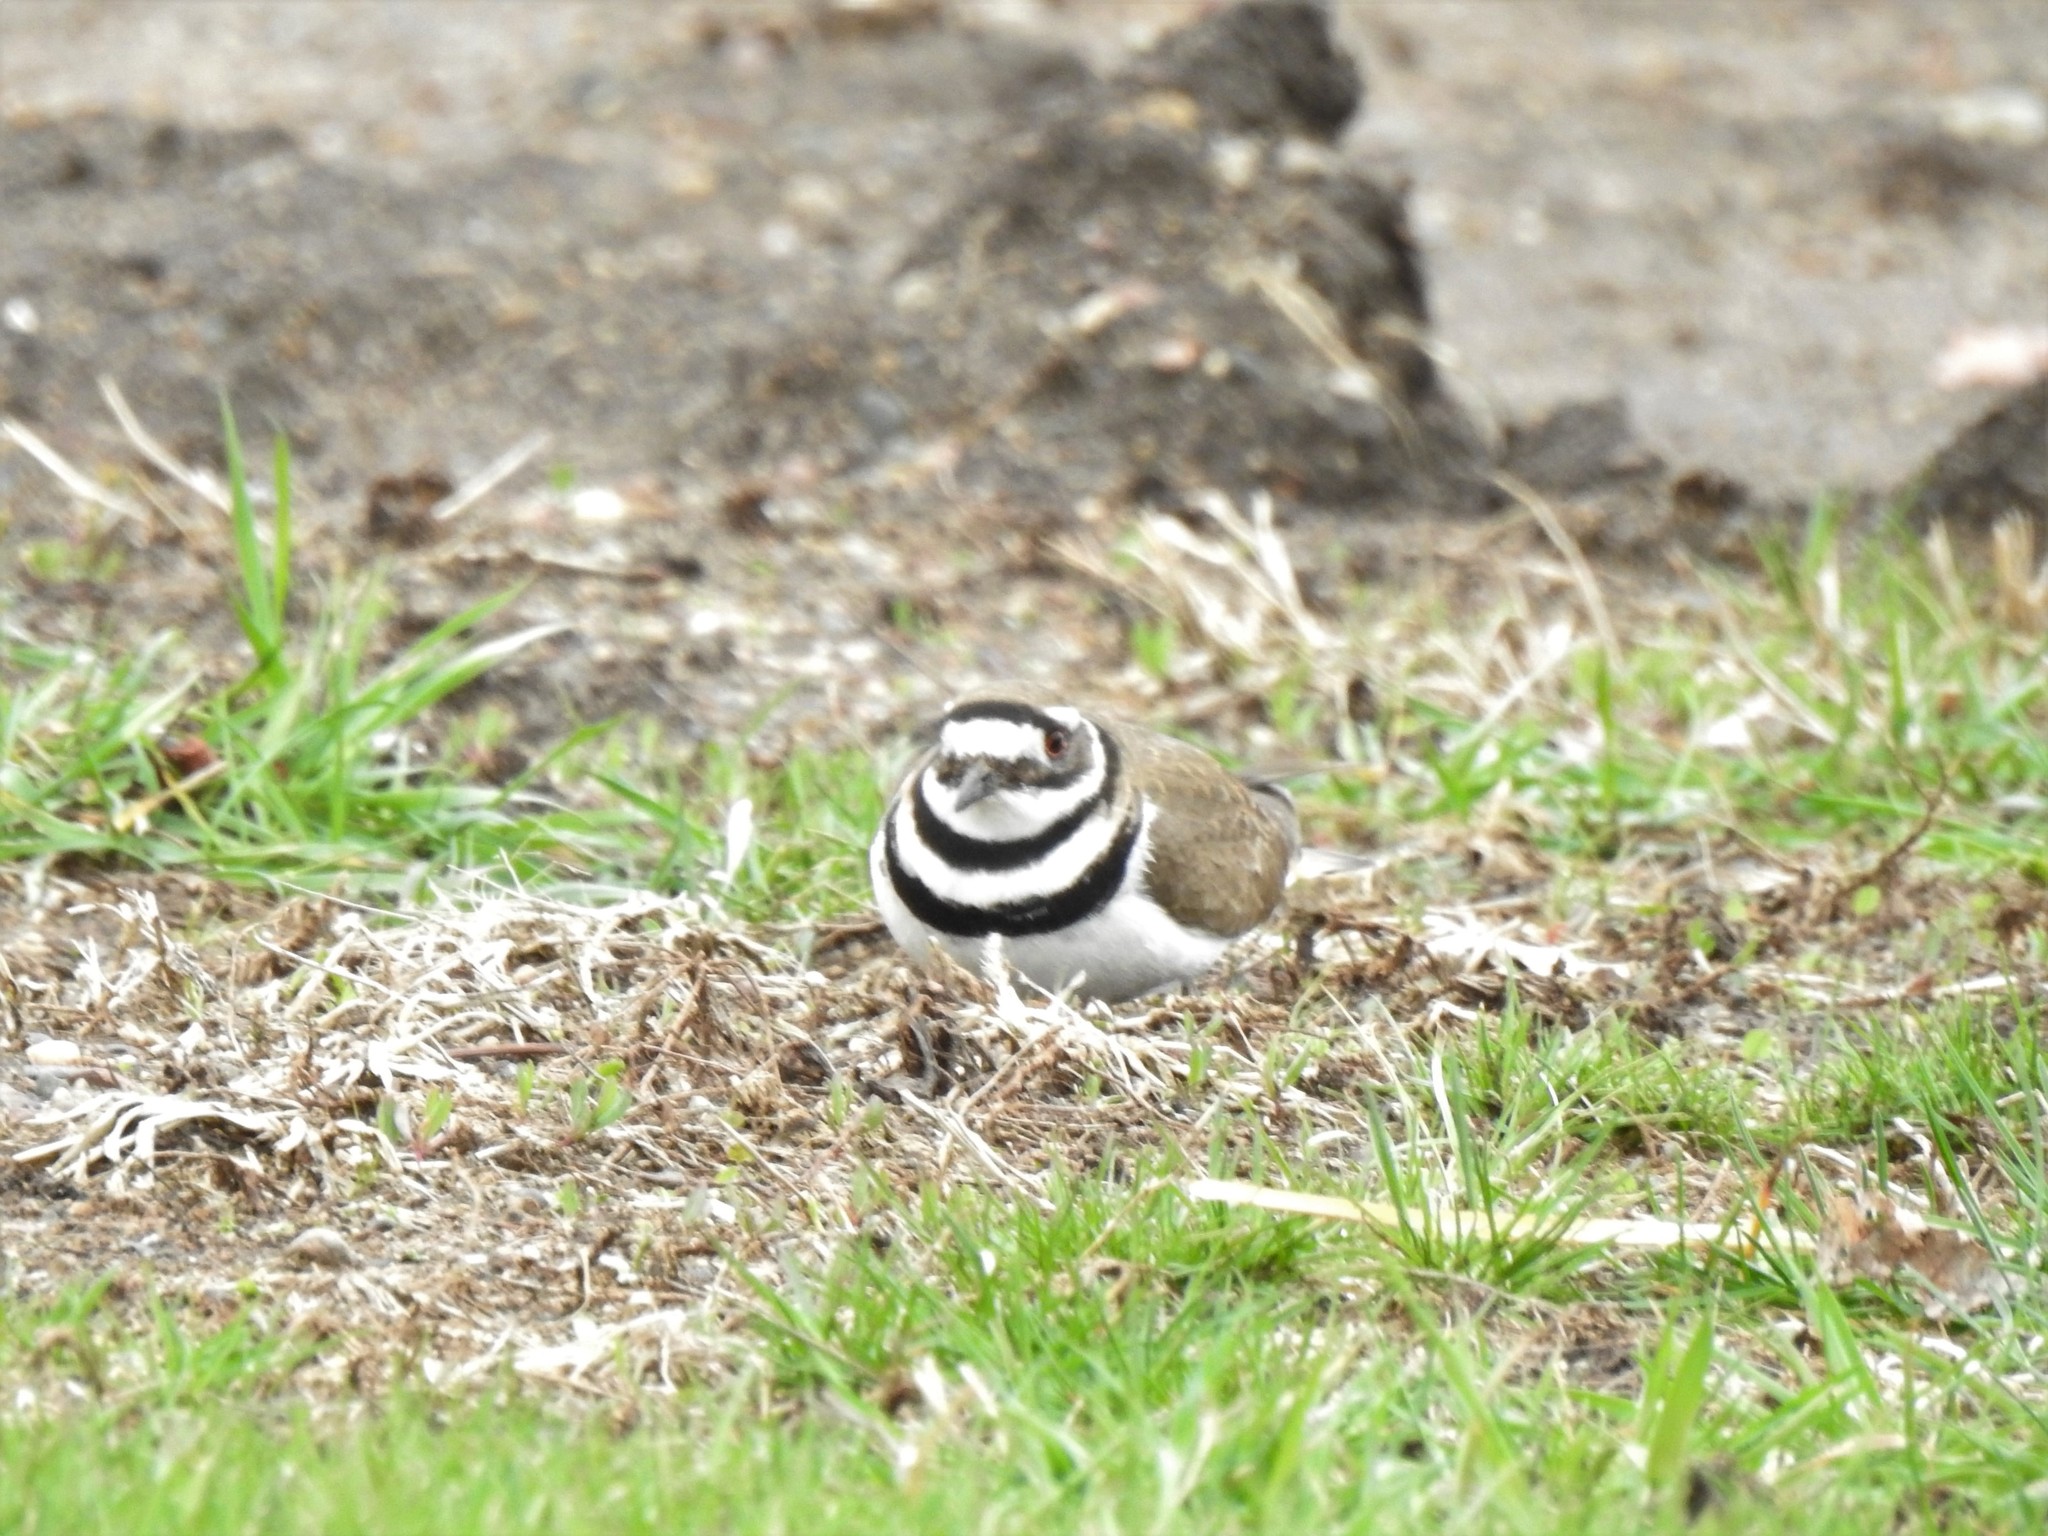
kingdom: Animalia
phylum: Chordata
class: Aves
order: Charadriiformes
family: Charadriidae
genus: Charadrius
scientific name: Charadrius vociferus
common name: Killdeer
